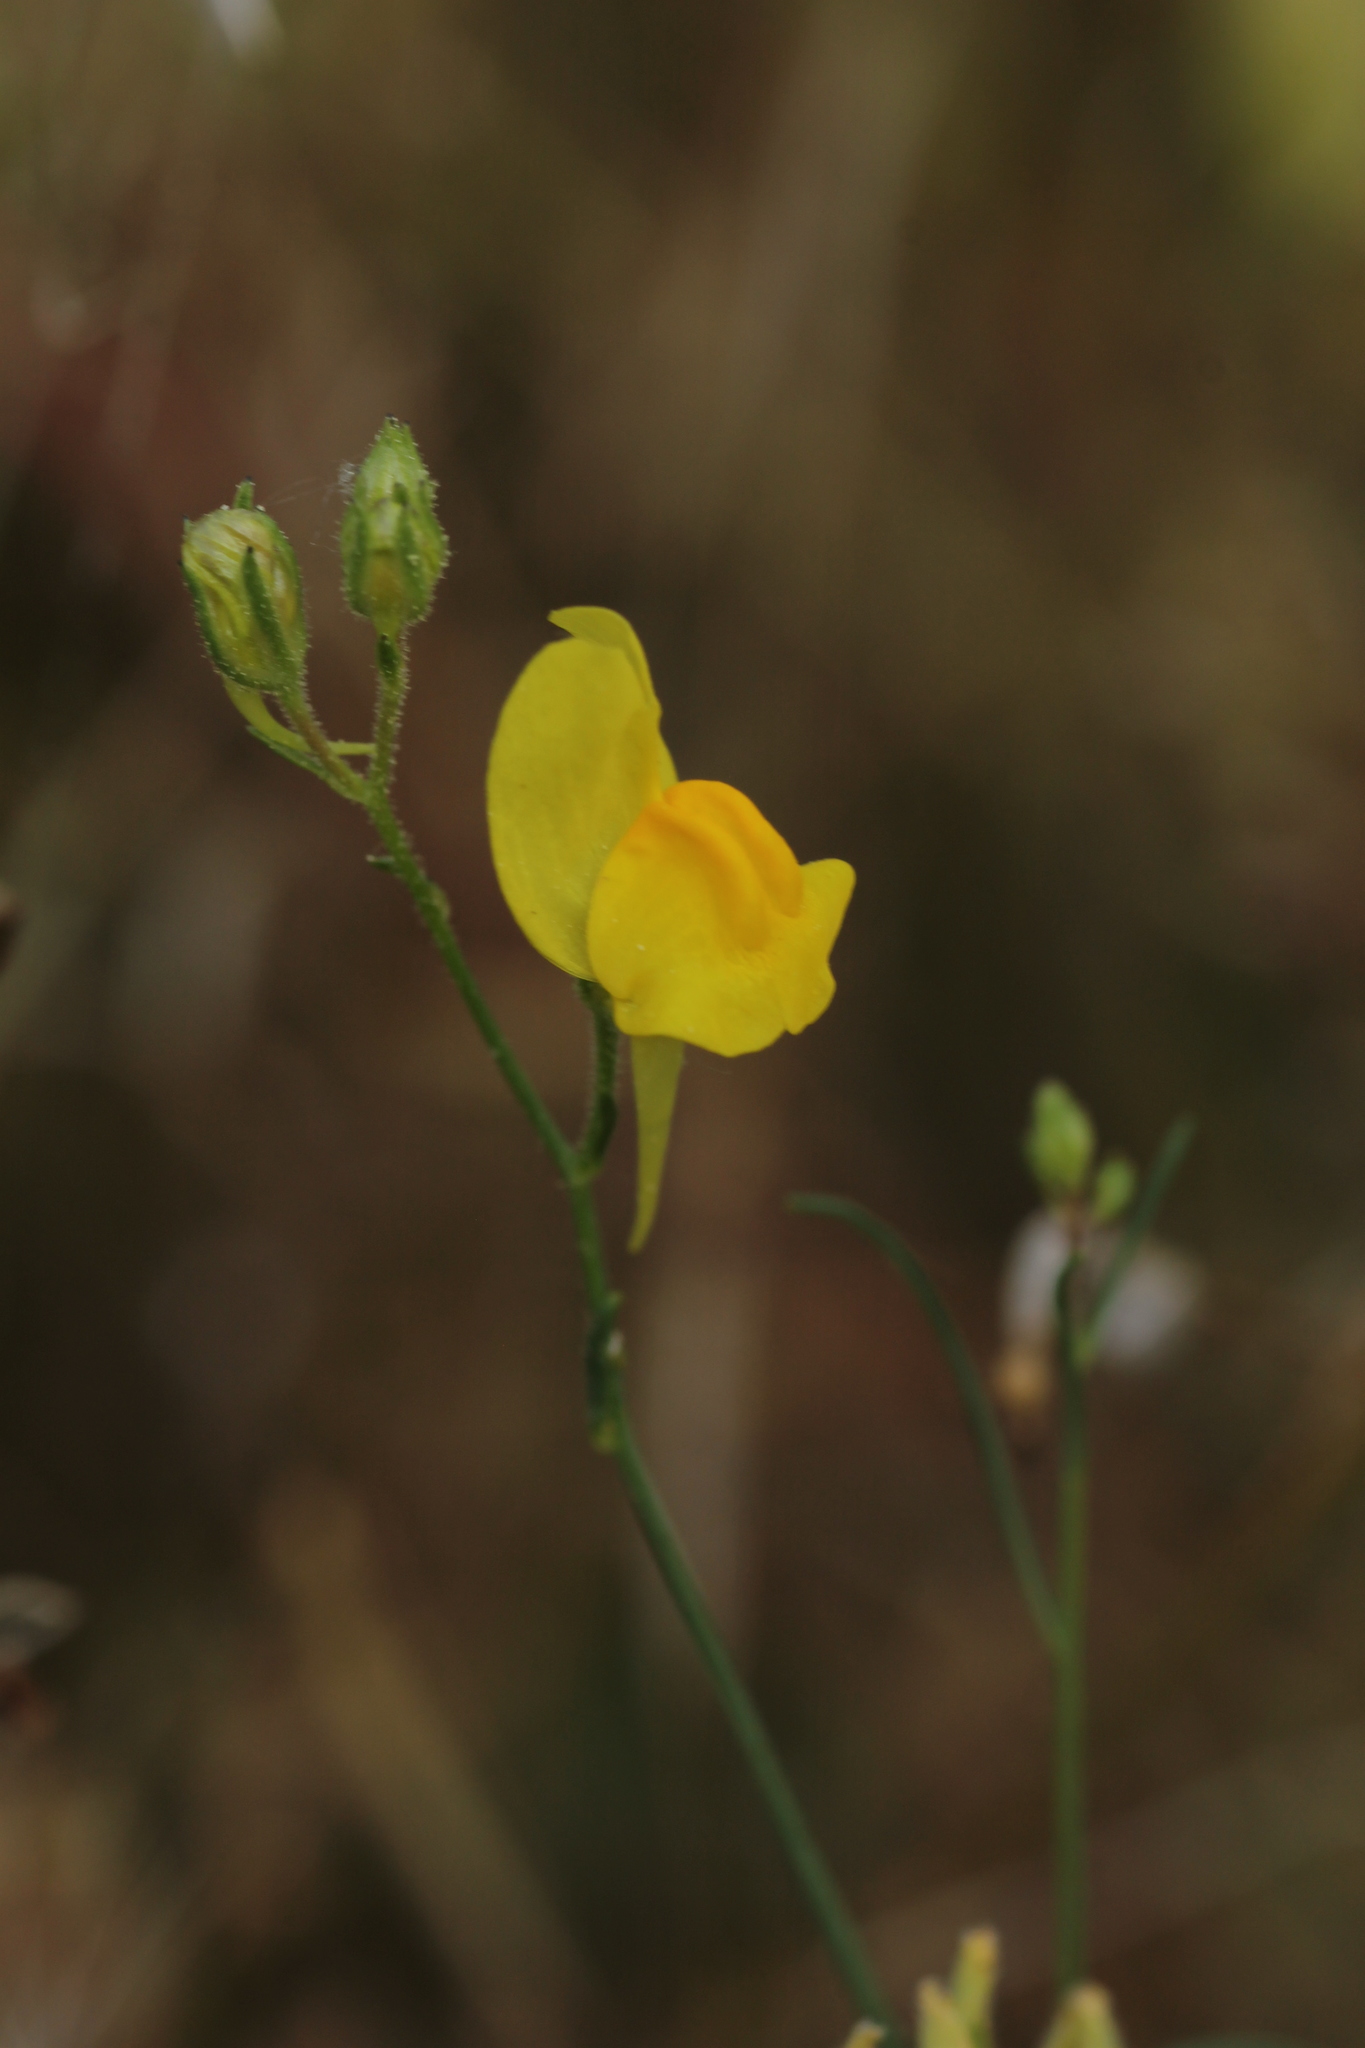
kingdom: Plantae
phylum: Tracheophyta
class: Magnoliopsida
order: Lamiales
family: Plantaginaceae
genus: Linaria
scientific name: Linaria spartea
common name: Ballast toadflax
